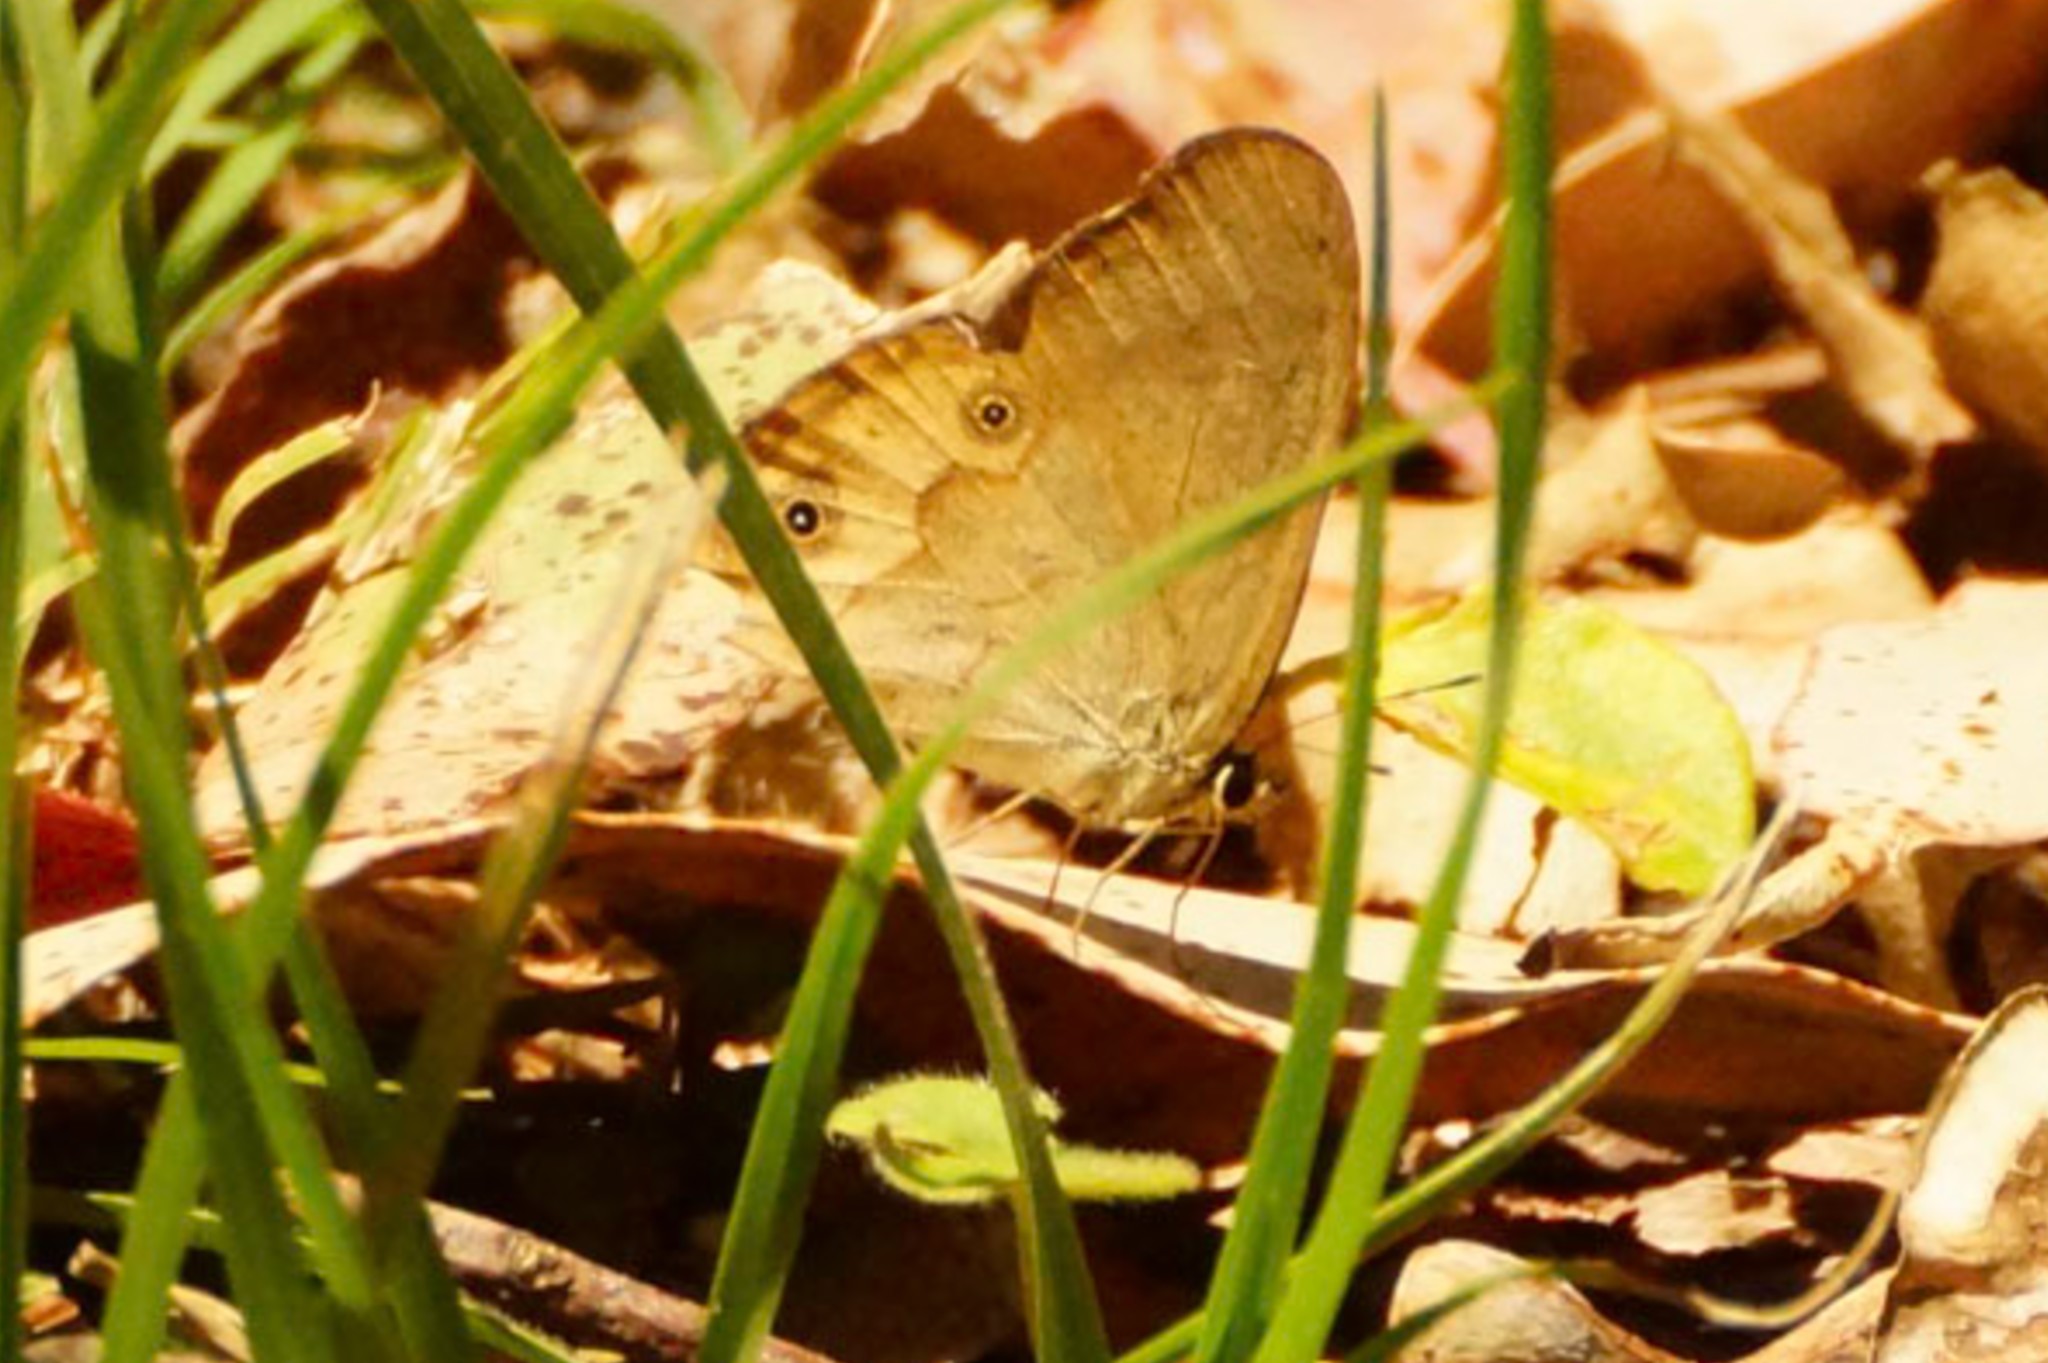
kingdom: Animalia
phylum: Arthropoda
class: Insecta
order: Lepidoptera
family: Nymphalidae
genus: Hypocysta
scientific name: Hypocysta metirius
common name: Brown ringlet
